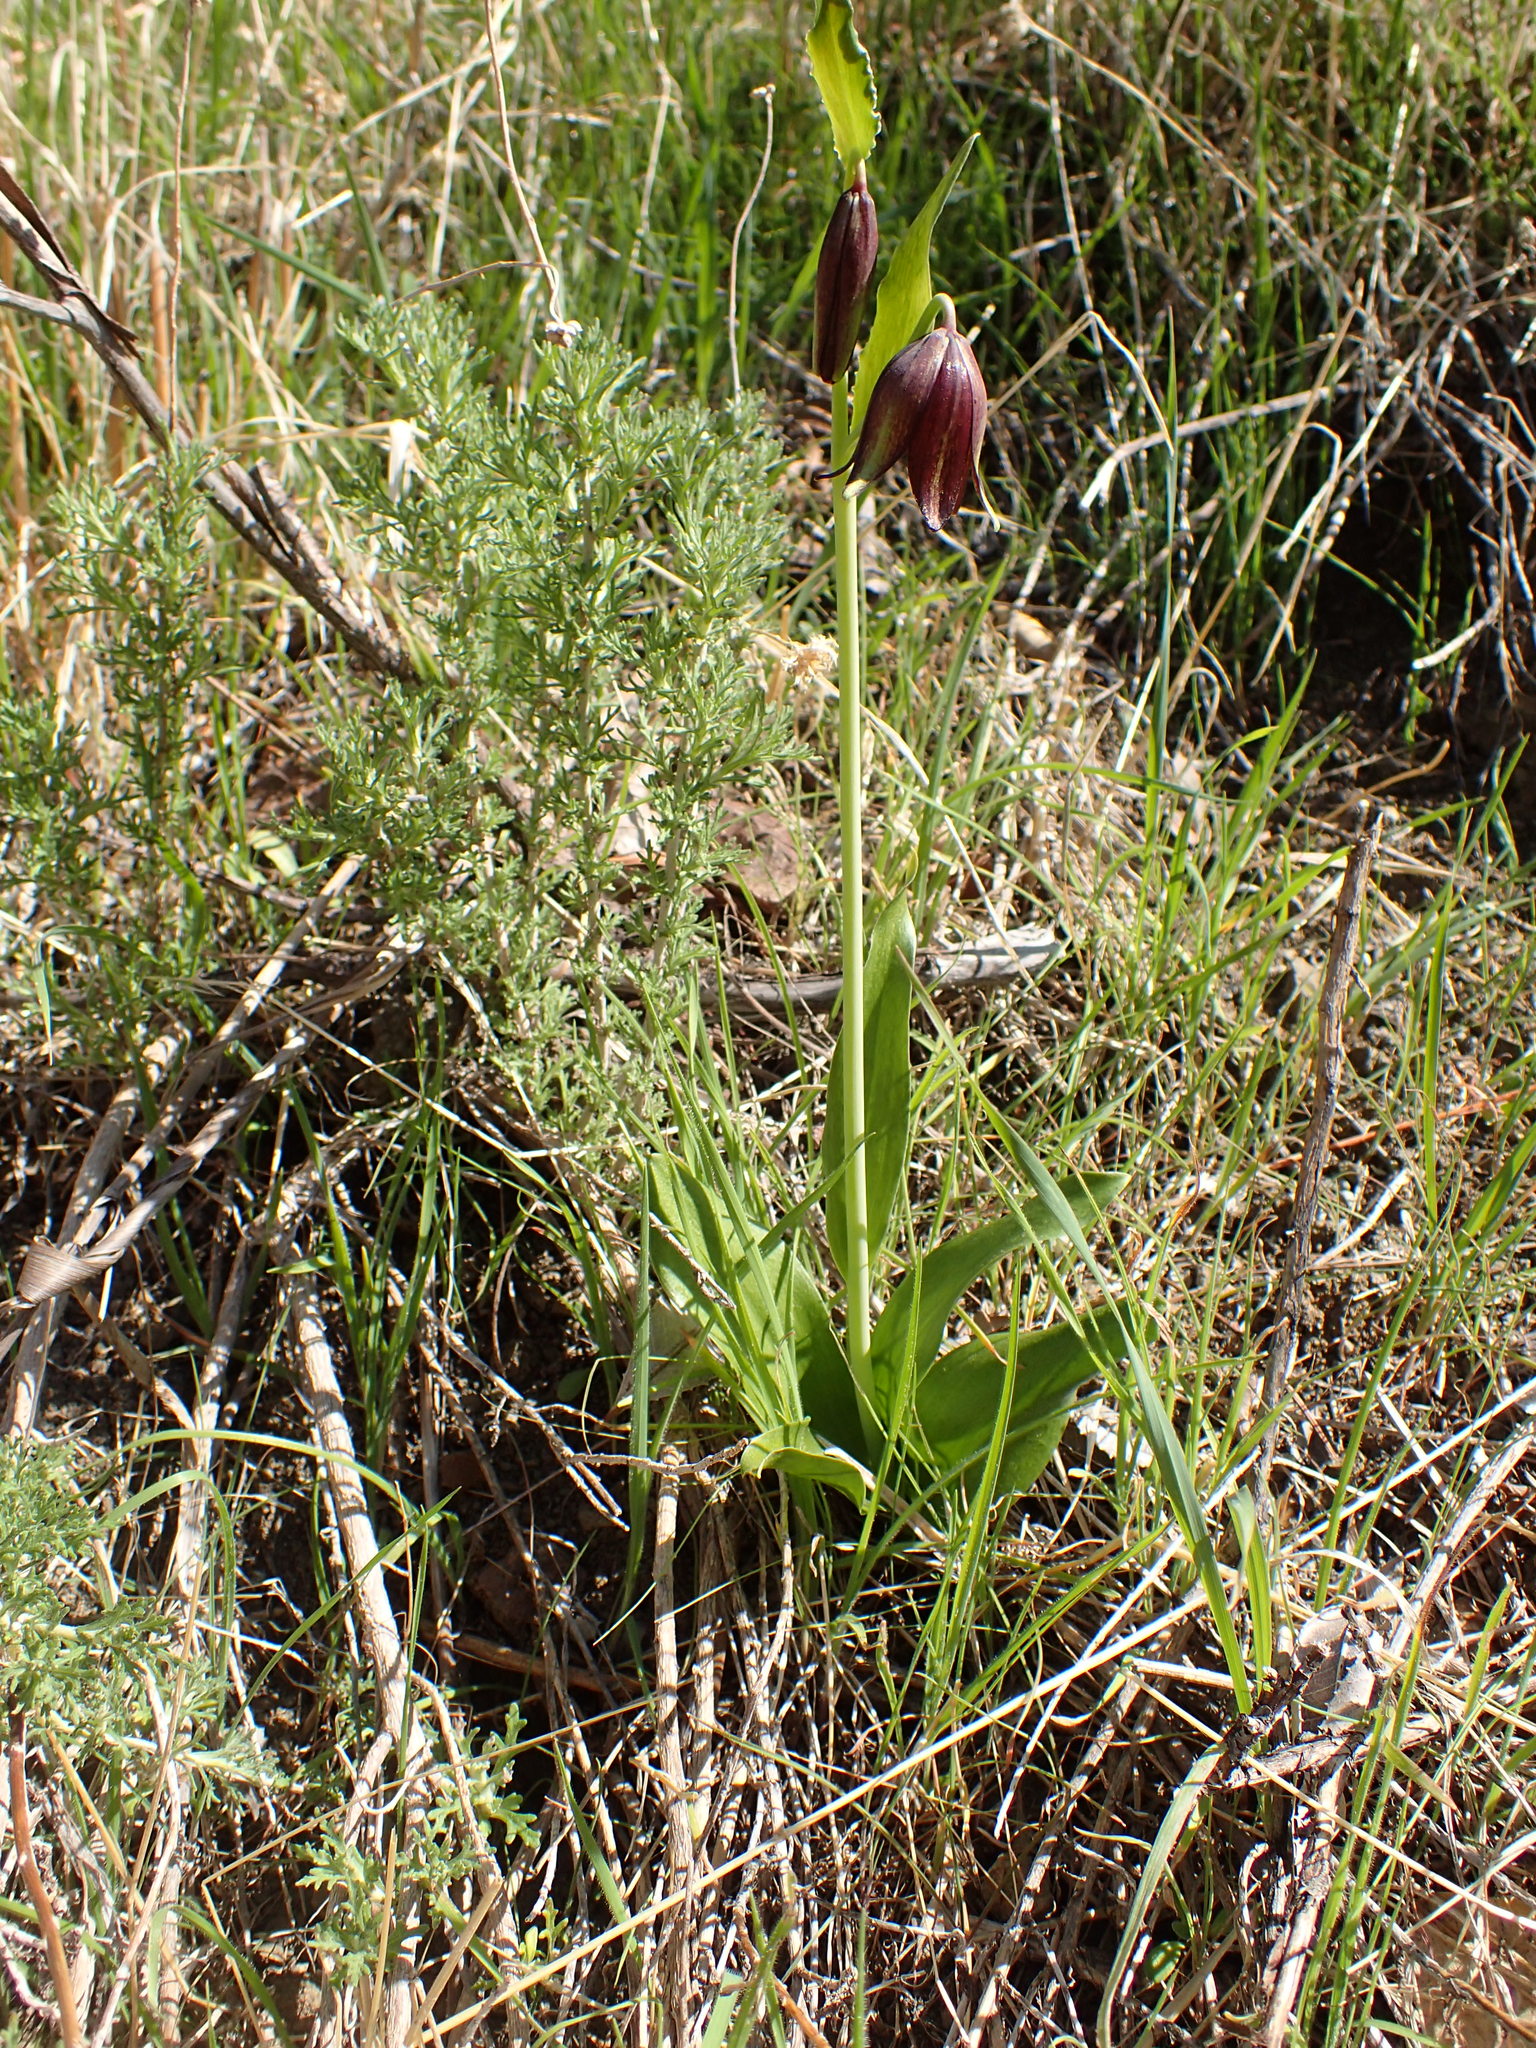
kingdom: Plantae
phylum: Tracheophyta
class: Liliopsida
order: Liliales
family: Liliaceae
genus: Fritillaria
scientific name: Fritillaria biflora
